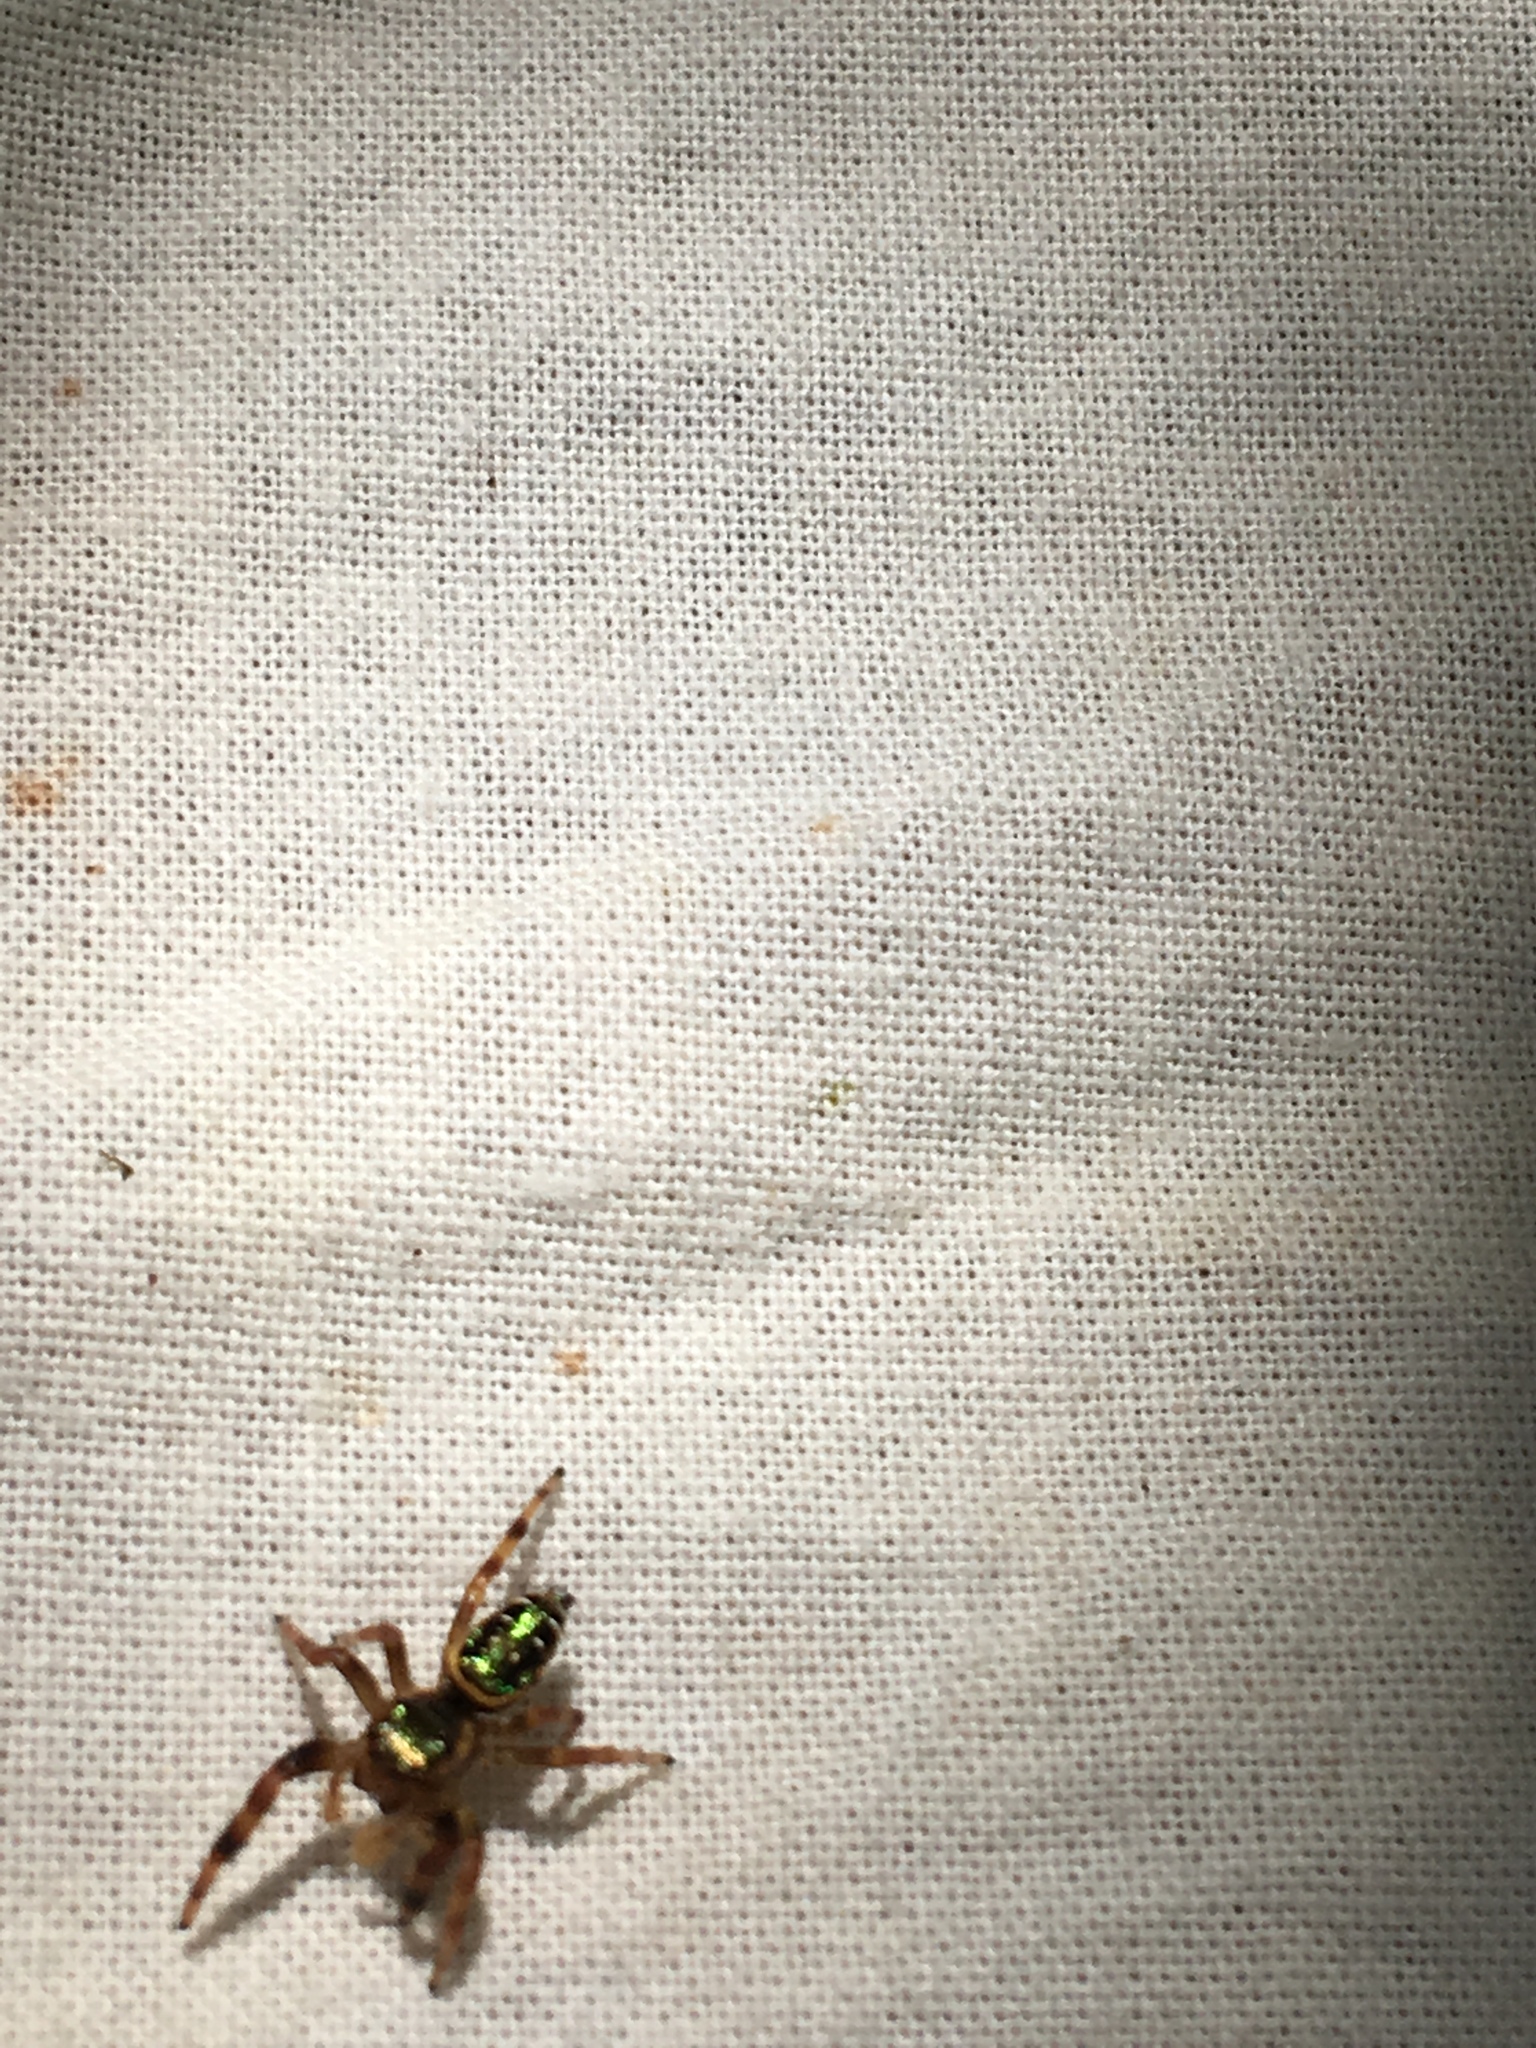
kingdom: Animalia
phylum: Arthropoda
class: Arachnida
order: Araneae
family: Salticidae
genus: Paraphidippus
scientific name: Paraphidippus aurantius
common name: Jumping spiders
